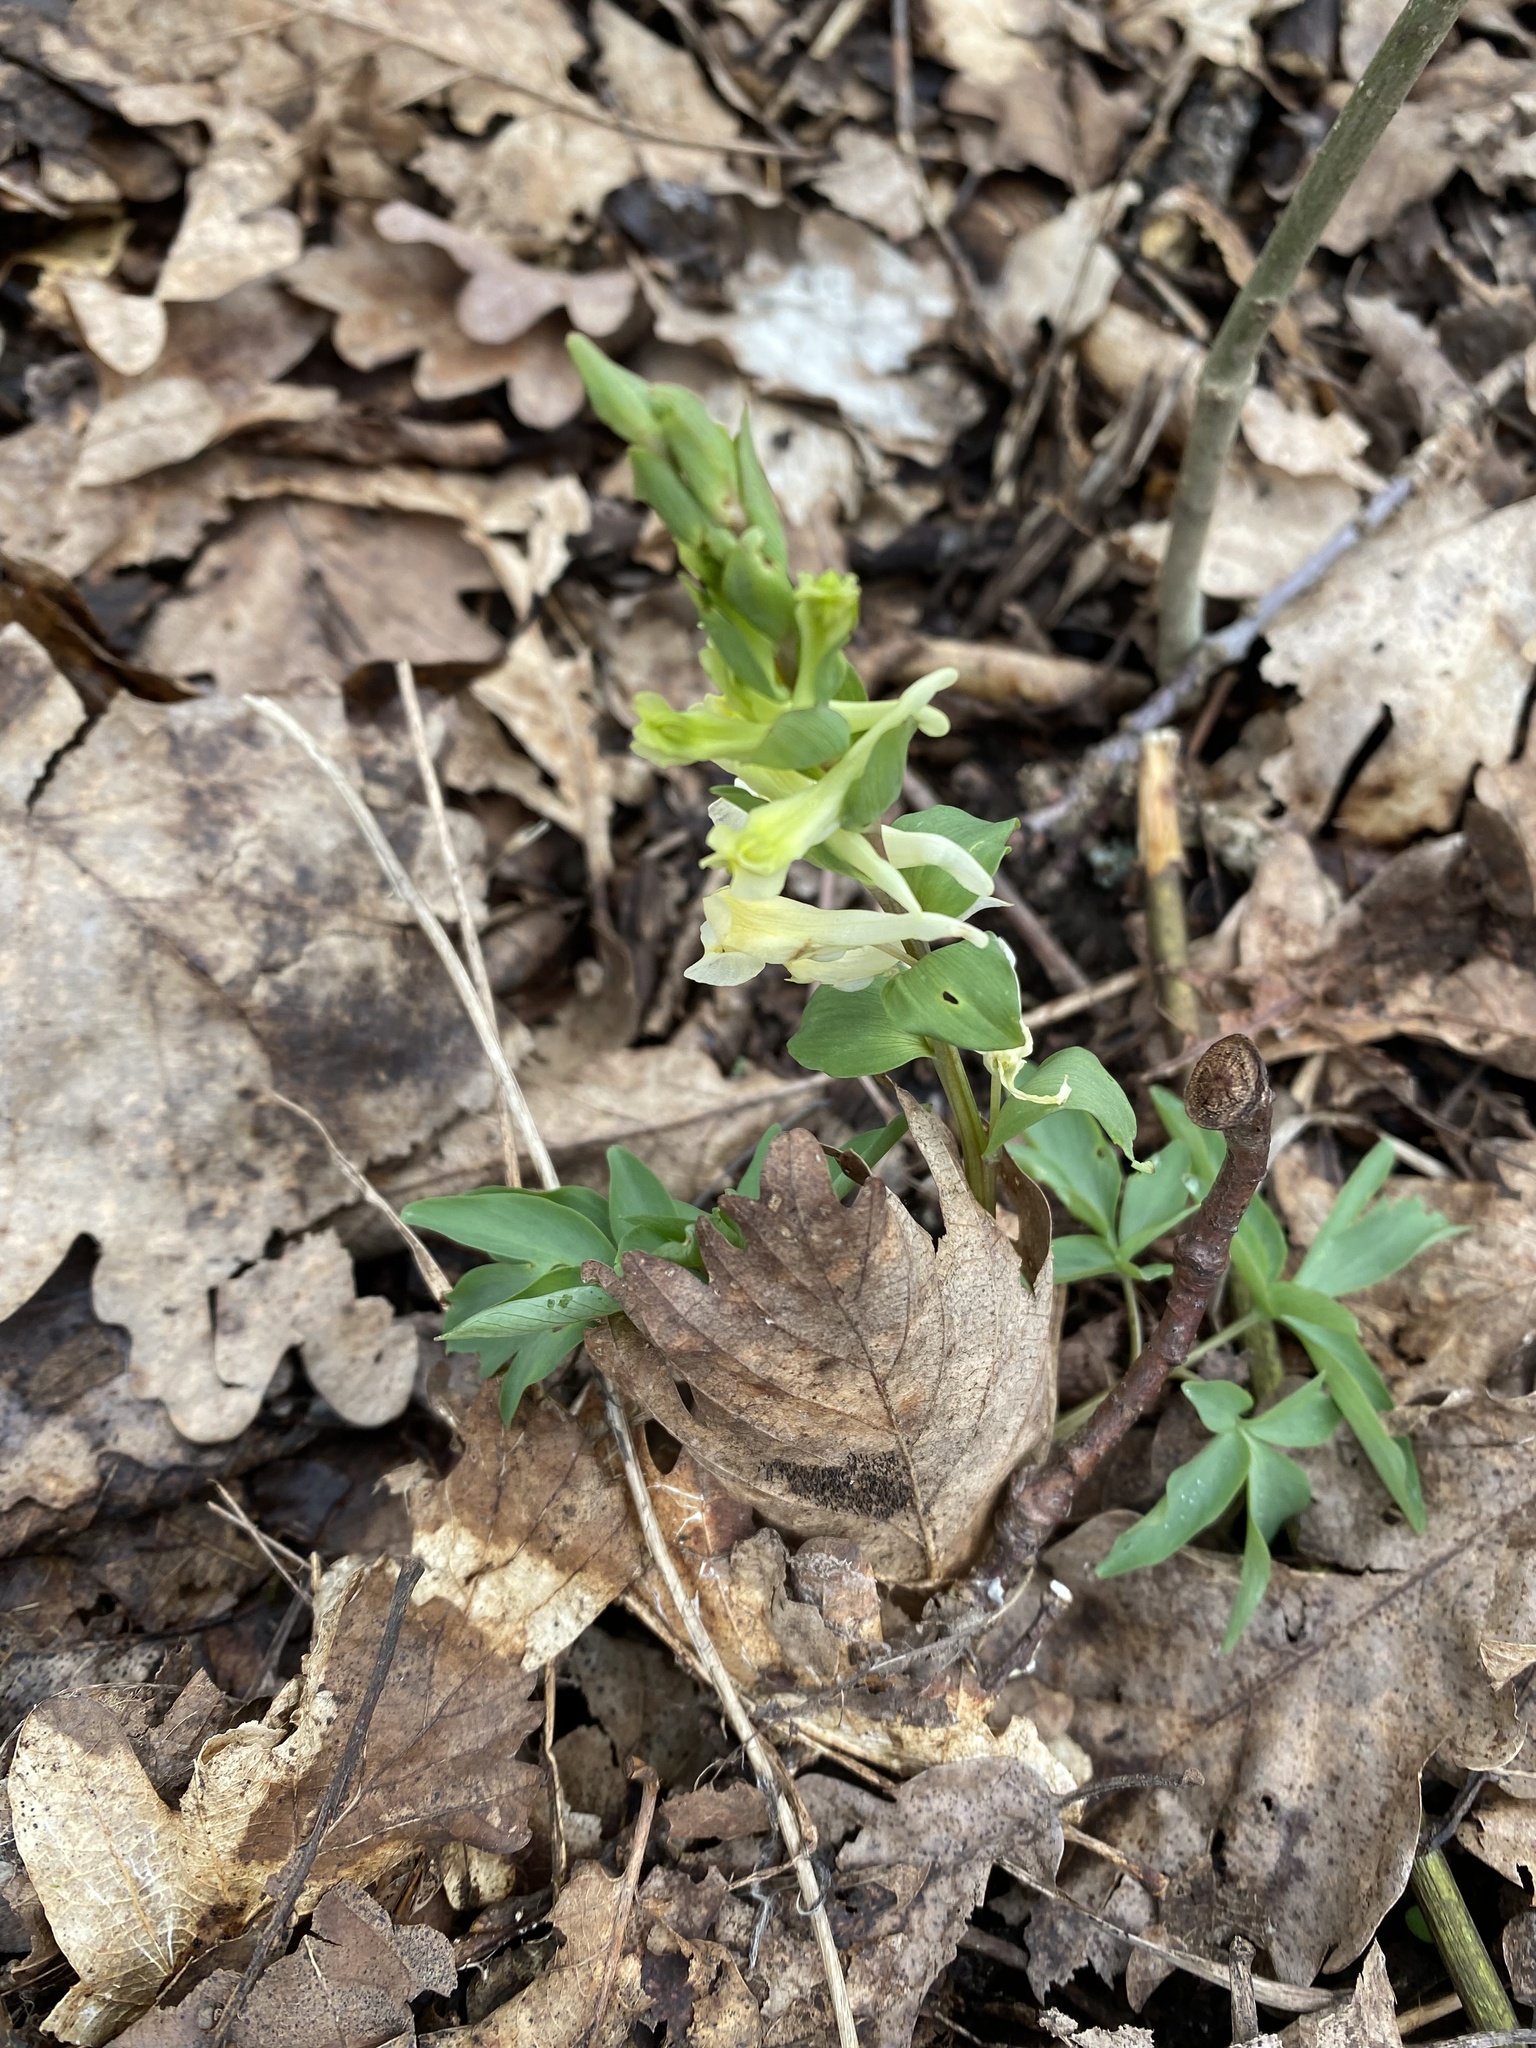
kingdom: Plantae
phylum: Tracheophyta
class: Magnoliopsida
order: Ranunculales
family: Papaveraceae
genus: Corydalis
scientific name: Corydalis cava
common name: Hollowroot
